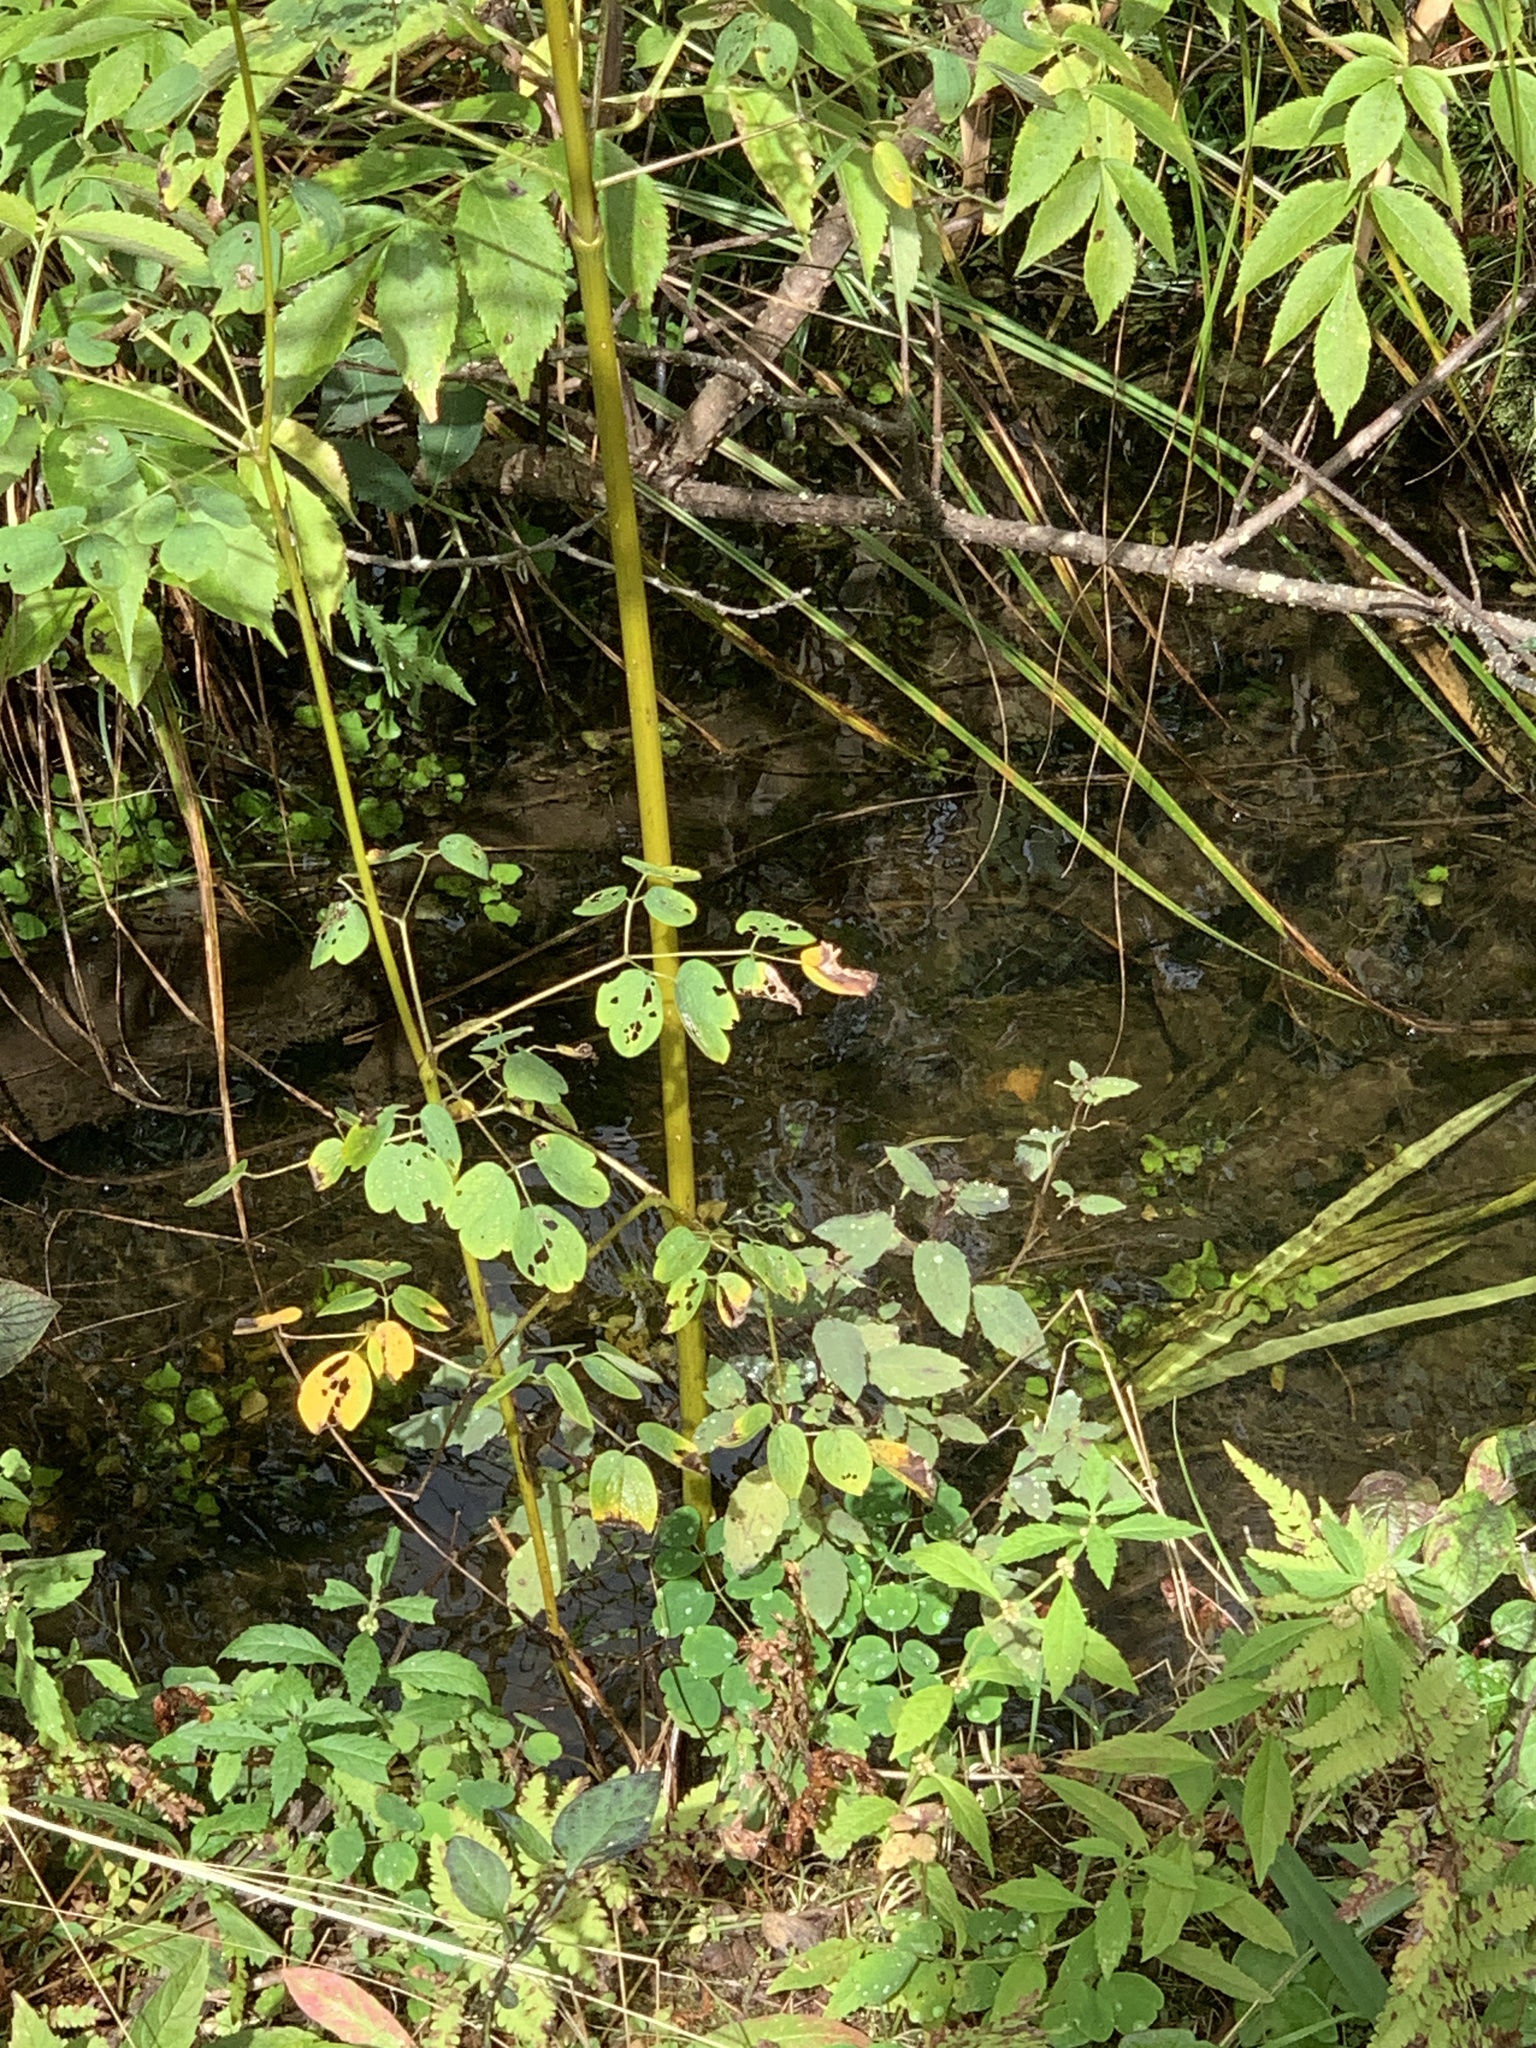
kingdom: Plantae
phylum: Tracheophyta
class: Magnoliopsida
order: Ranunculales
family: Ranunculaceae
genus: Thalictrum
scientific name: Thalictrum pubescens
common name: King-of-the-meadow
